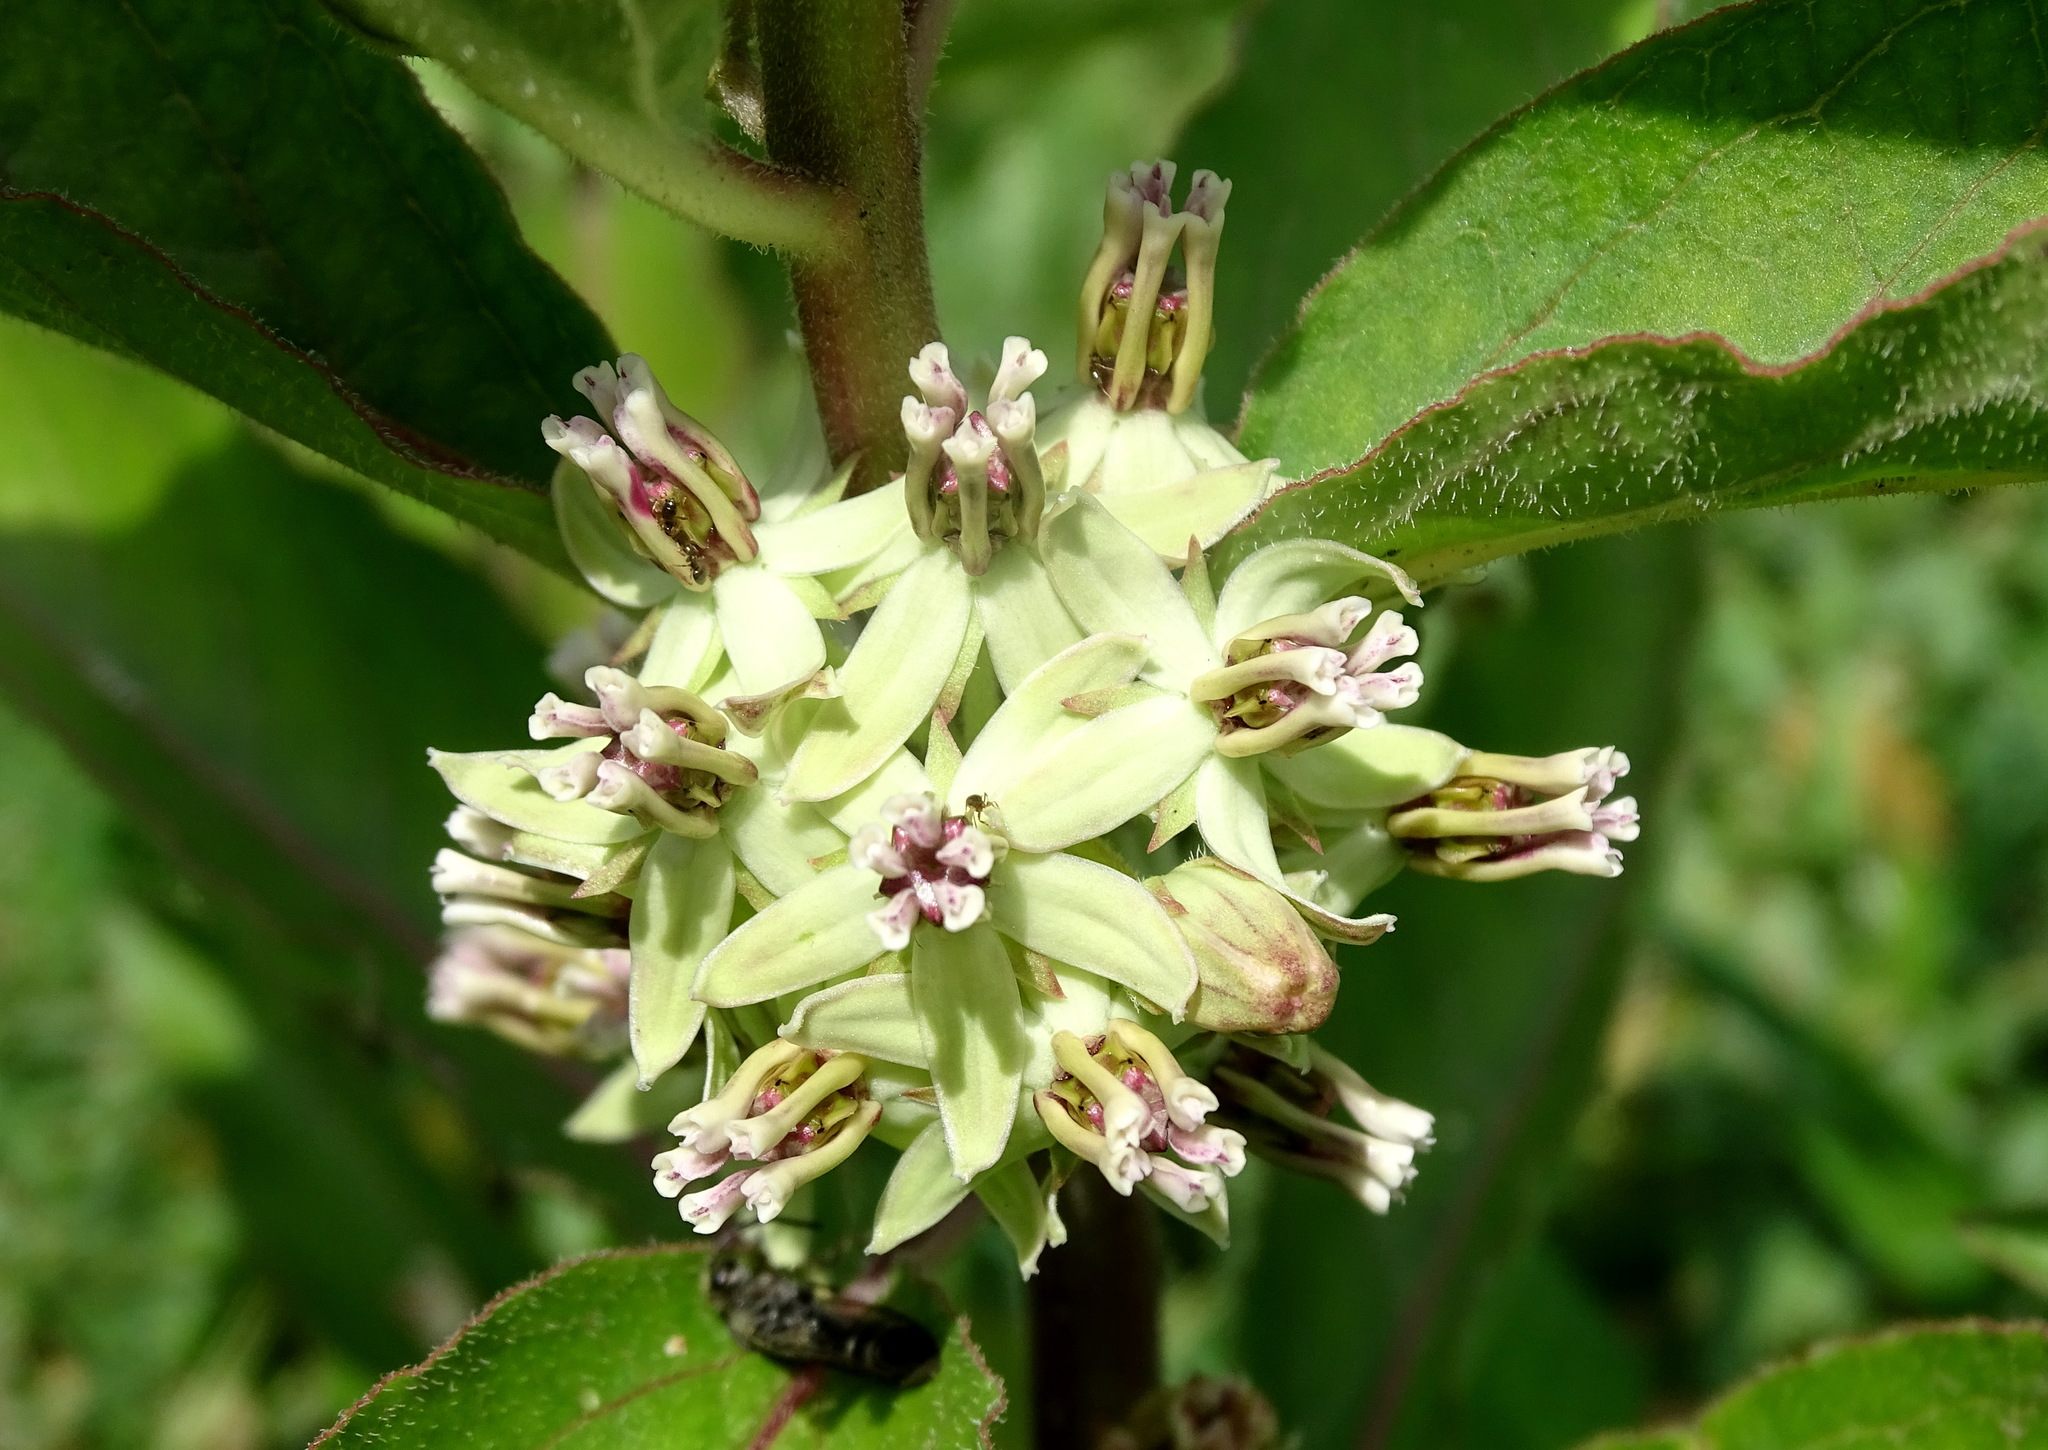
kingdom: Plantae
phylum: Tracheophyta
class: Magnoliopsida
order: Gentianales
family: Apocynaceae
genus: Asclepias
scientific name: Asclepias oenotheroides
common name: Zizotes milkweed
